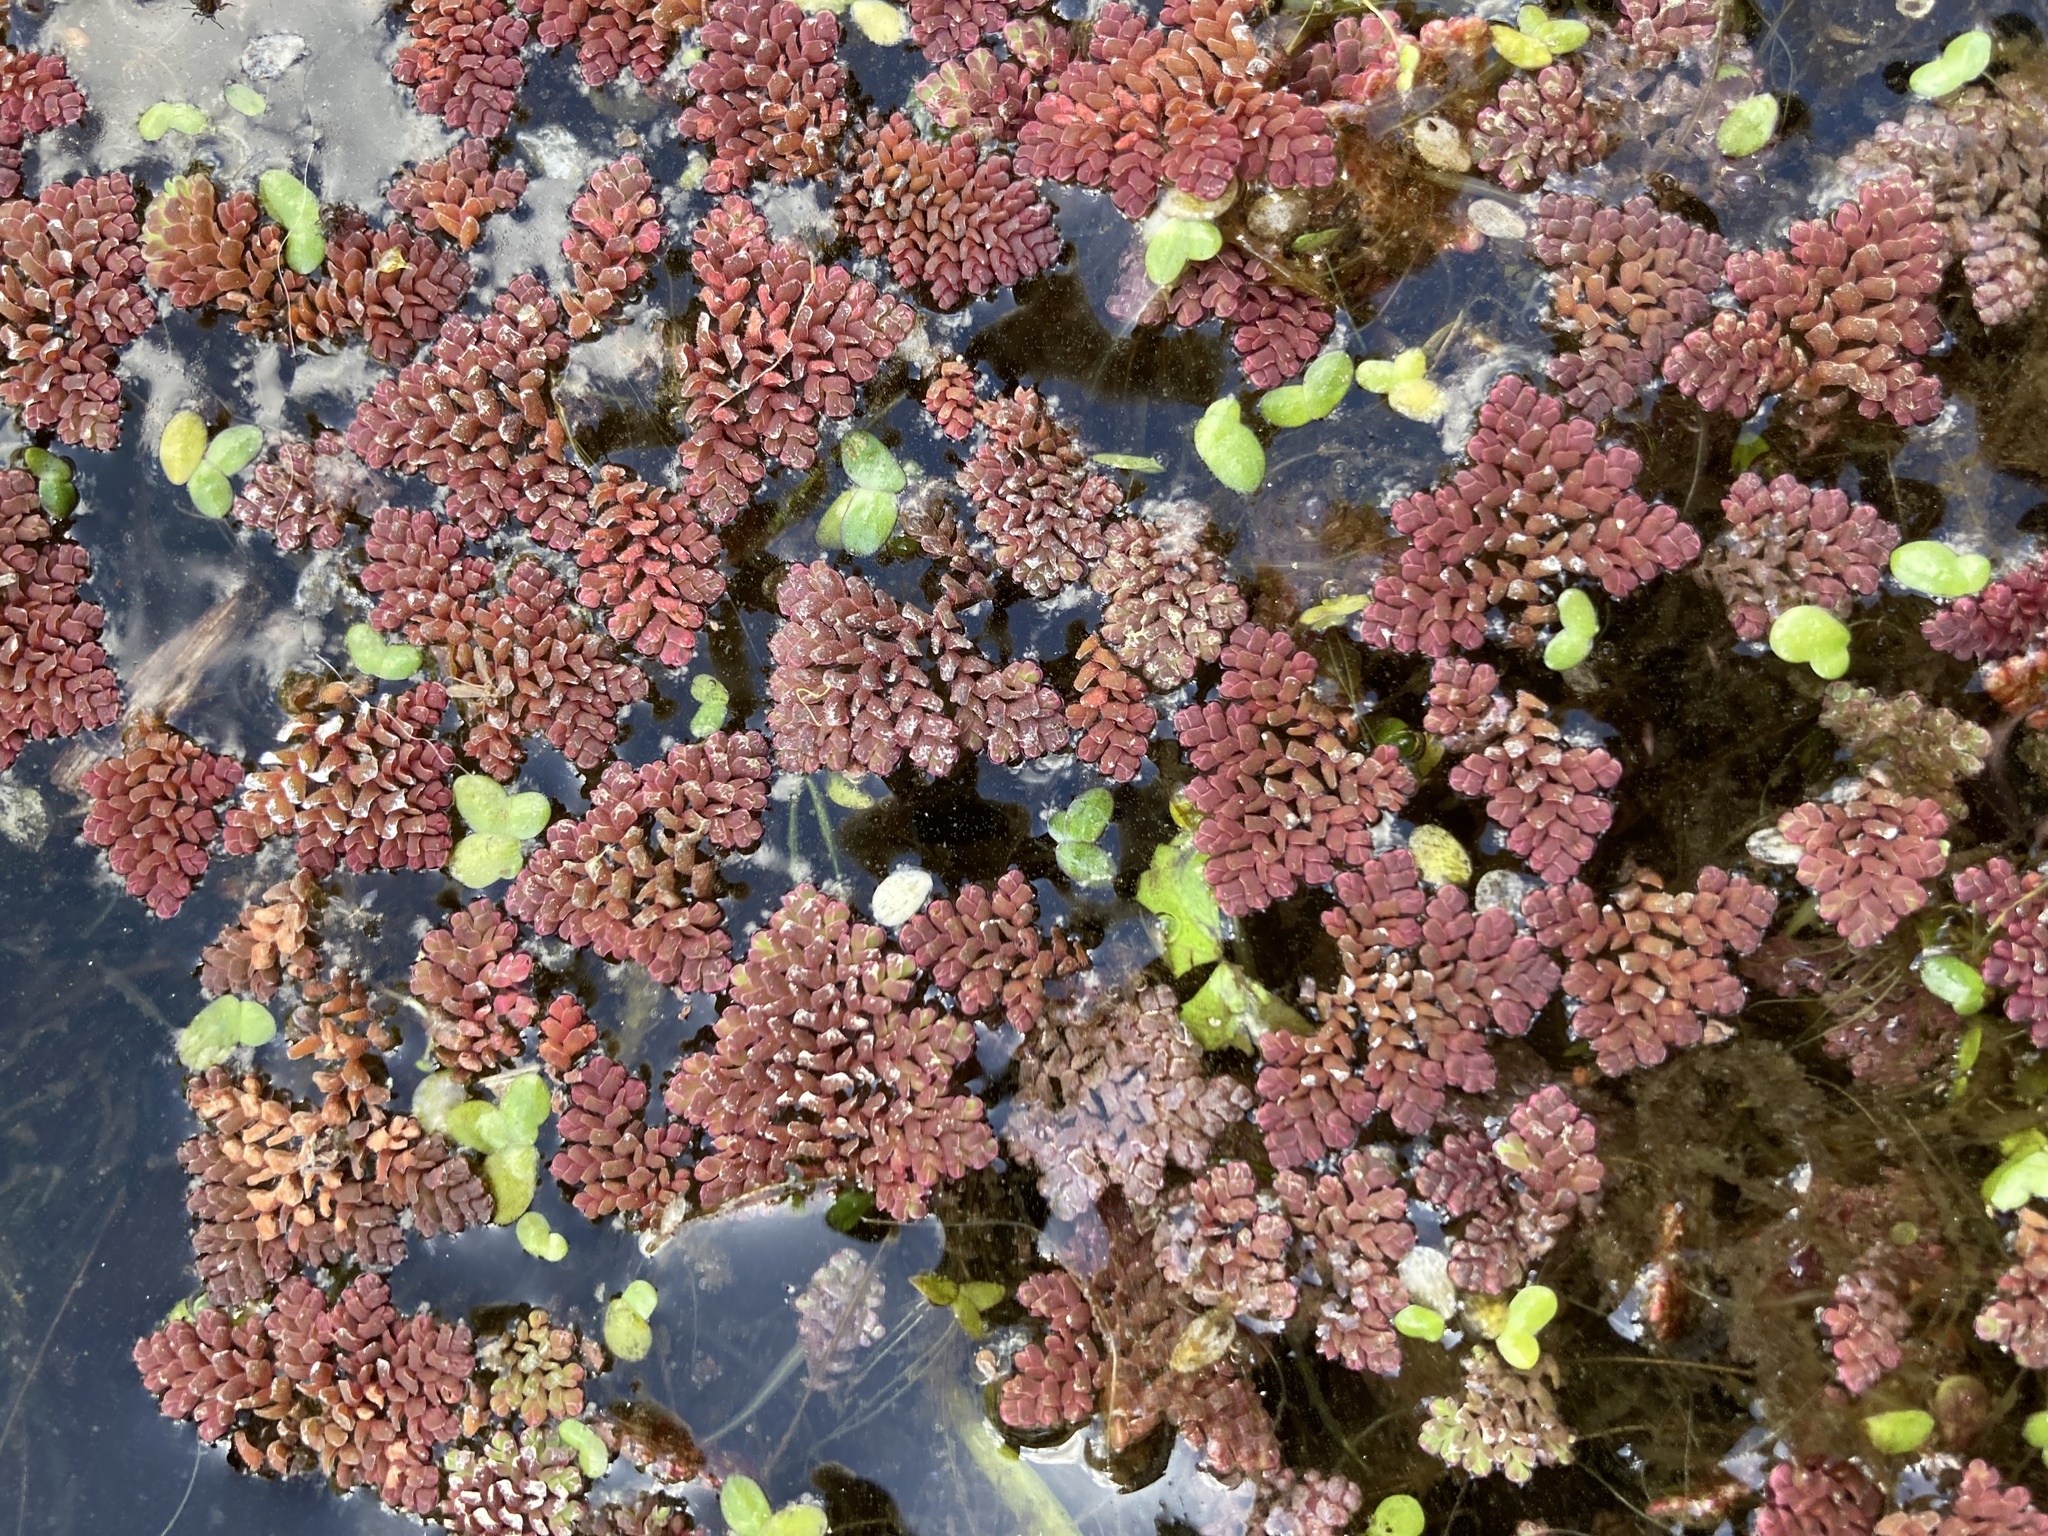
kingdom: Plantae
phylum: Tracheophyta
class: Polypodiopsida
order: Salviniales
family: Salviniaceae
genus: Azolla
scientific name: Azolla pinnata
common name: Ferny azolla
